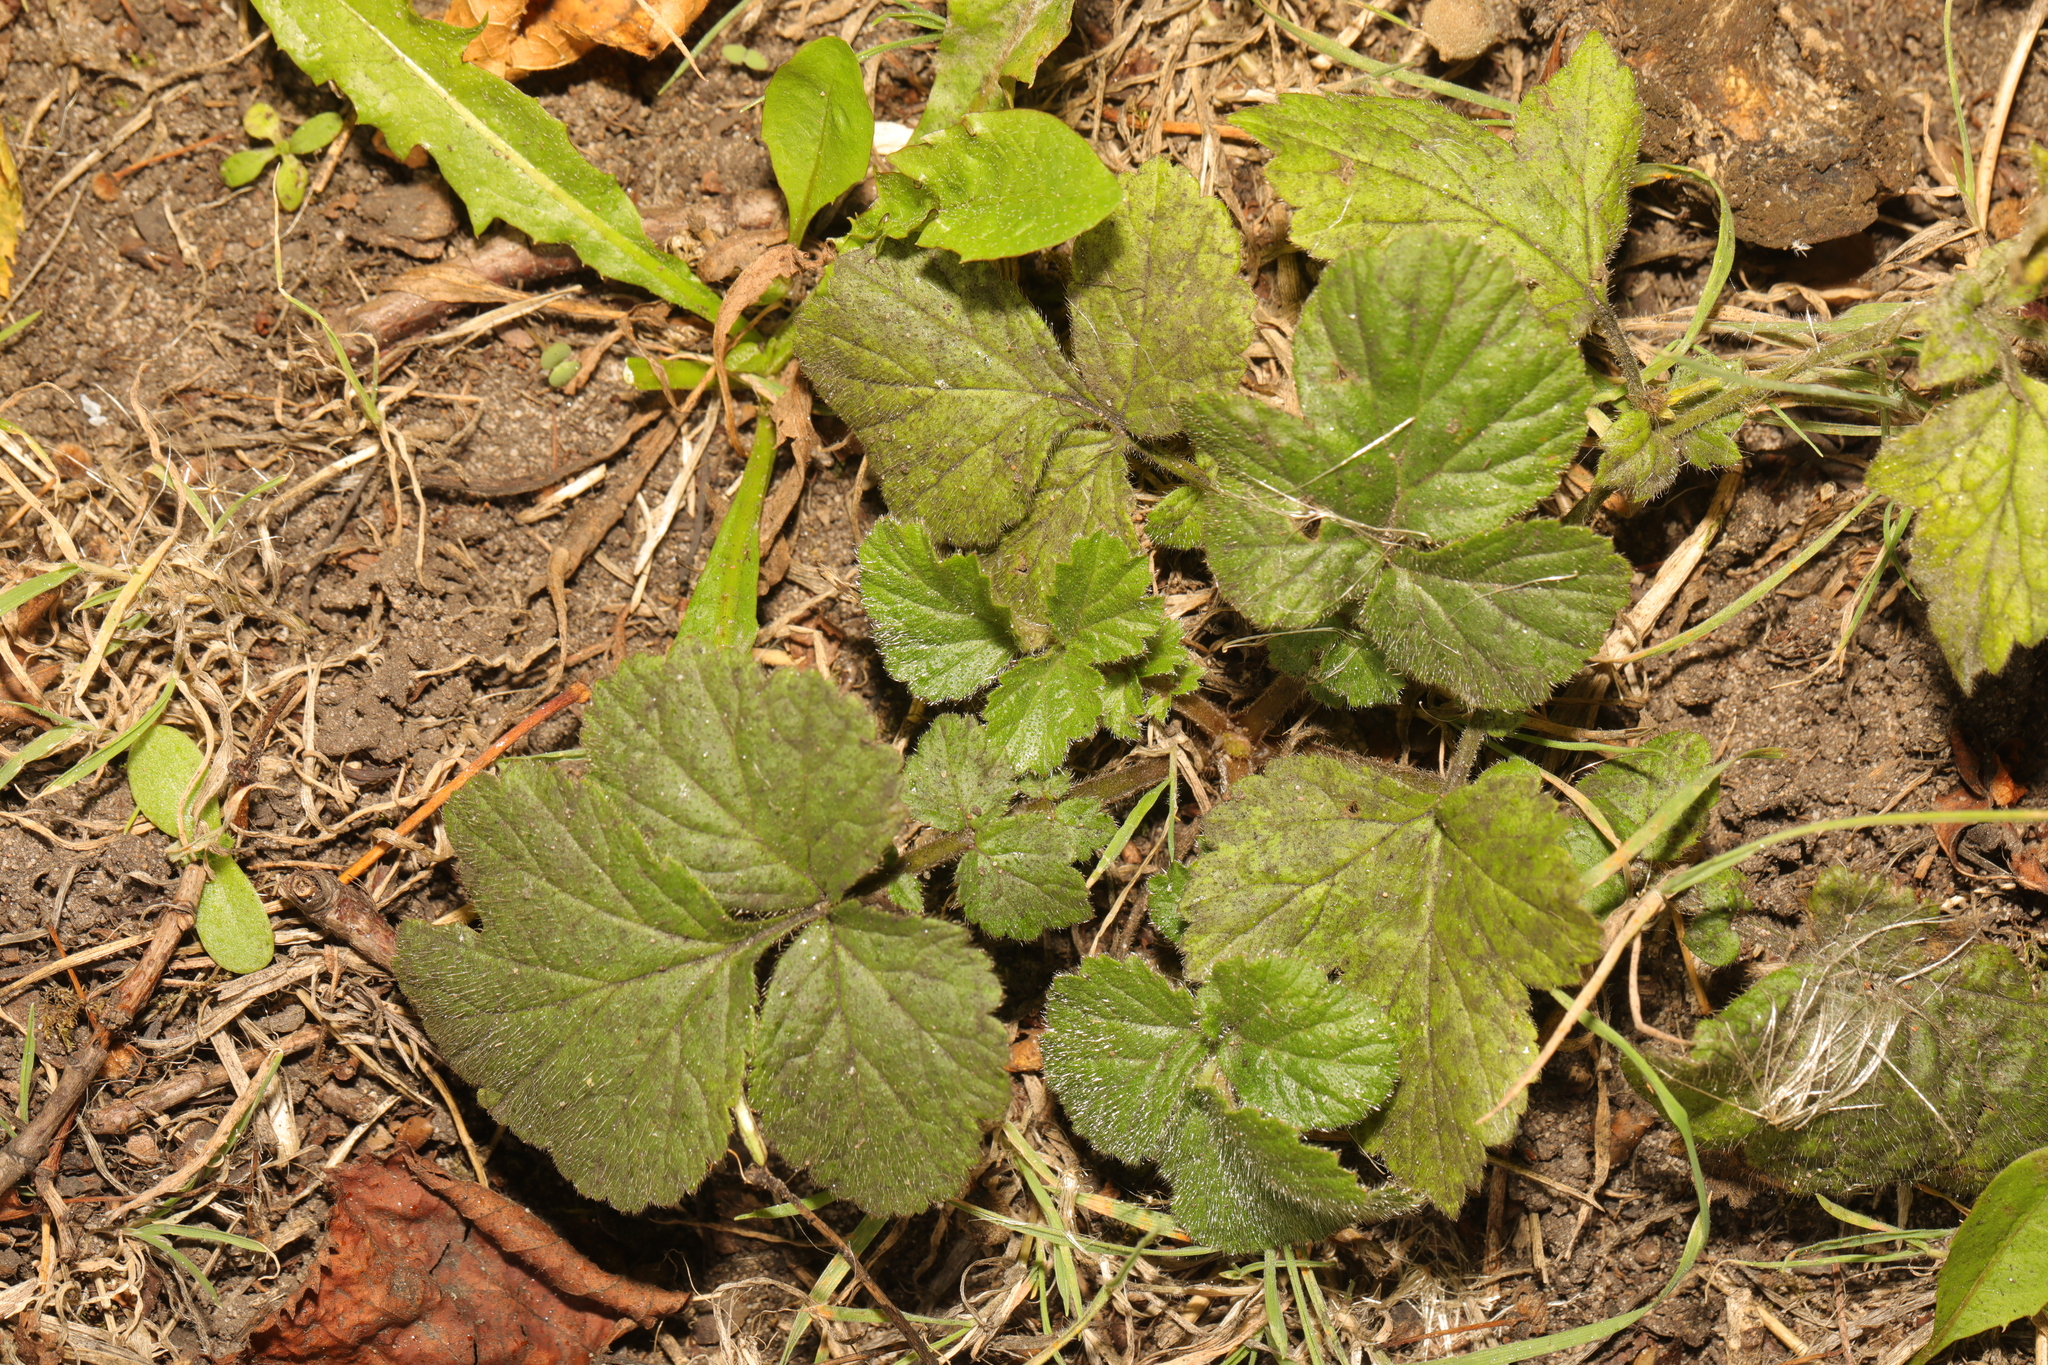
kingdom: Plantae
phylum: Tracheophyta
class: Magnoliopsida
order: Rosales
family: Rosaceae
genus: Geum
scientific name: Geum urbanum
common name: Wood avens
